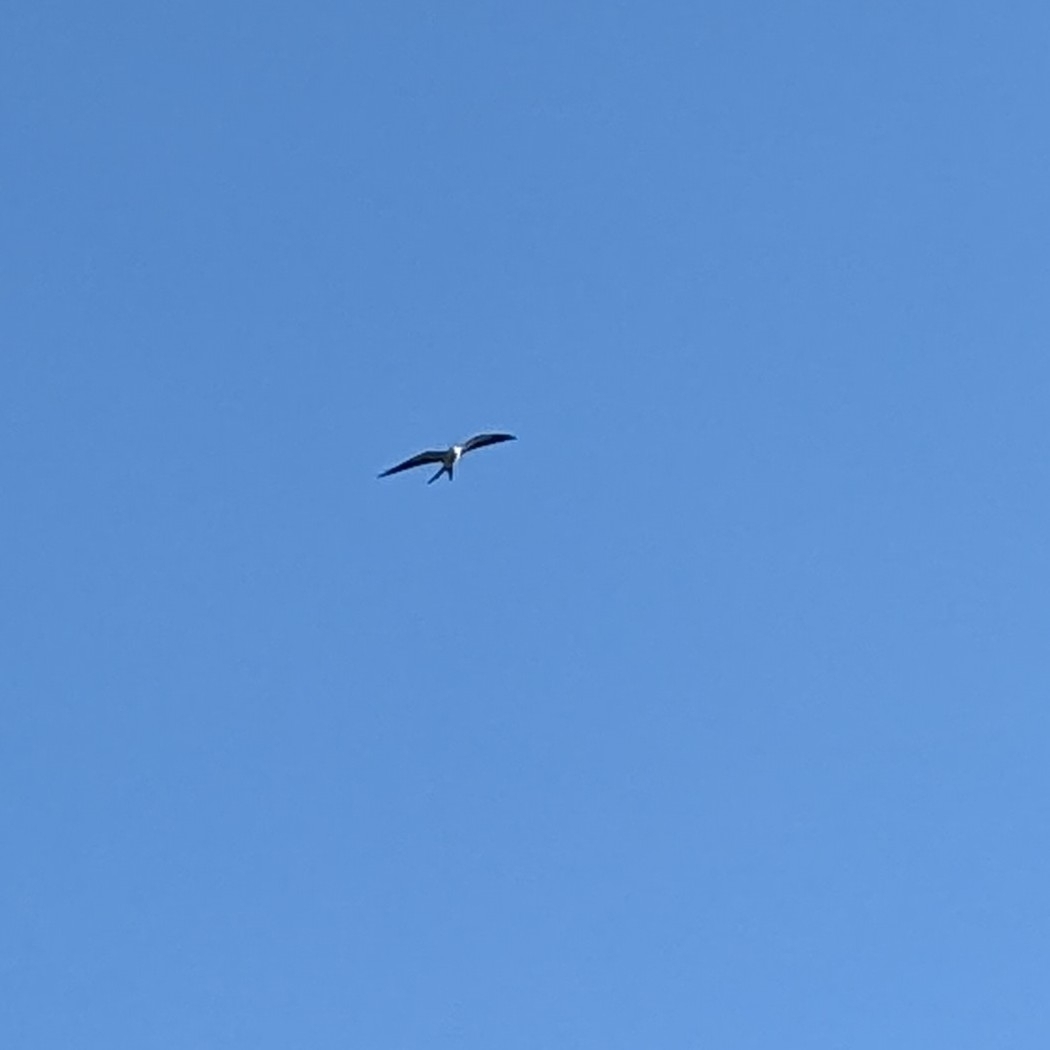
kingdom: Animalia
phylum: Chordata
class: Aves
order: Accipitriformes
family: Accipitridae
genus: Elanoides
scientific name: Elanoides forficatus
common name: Swallow-tailed kite
